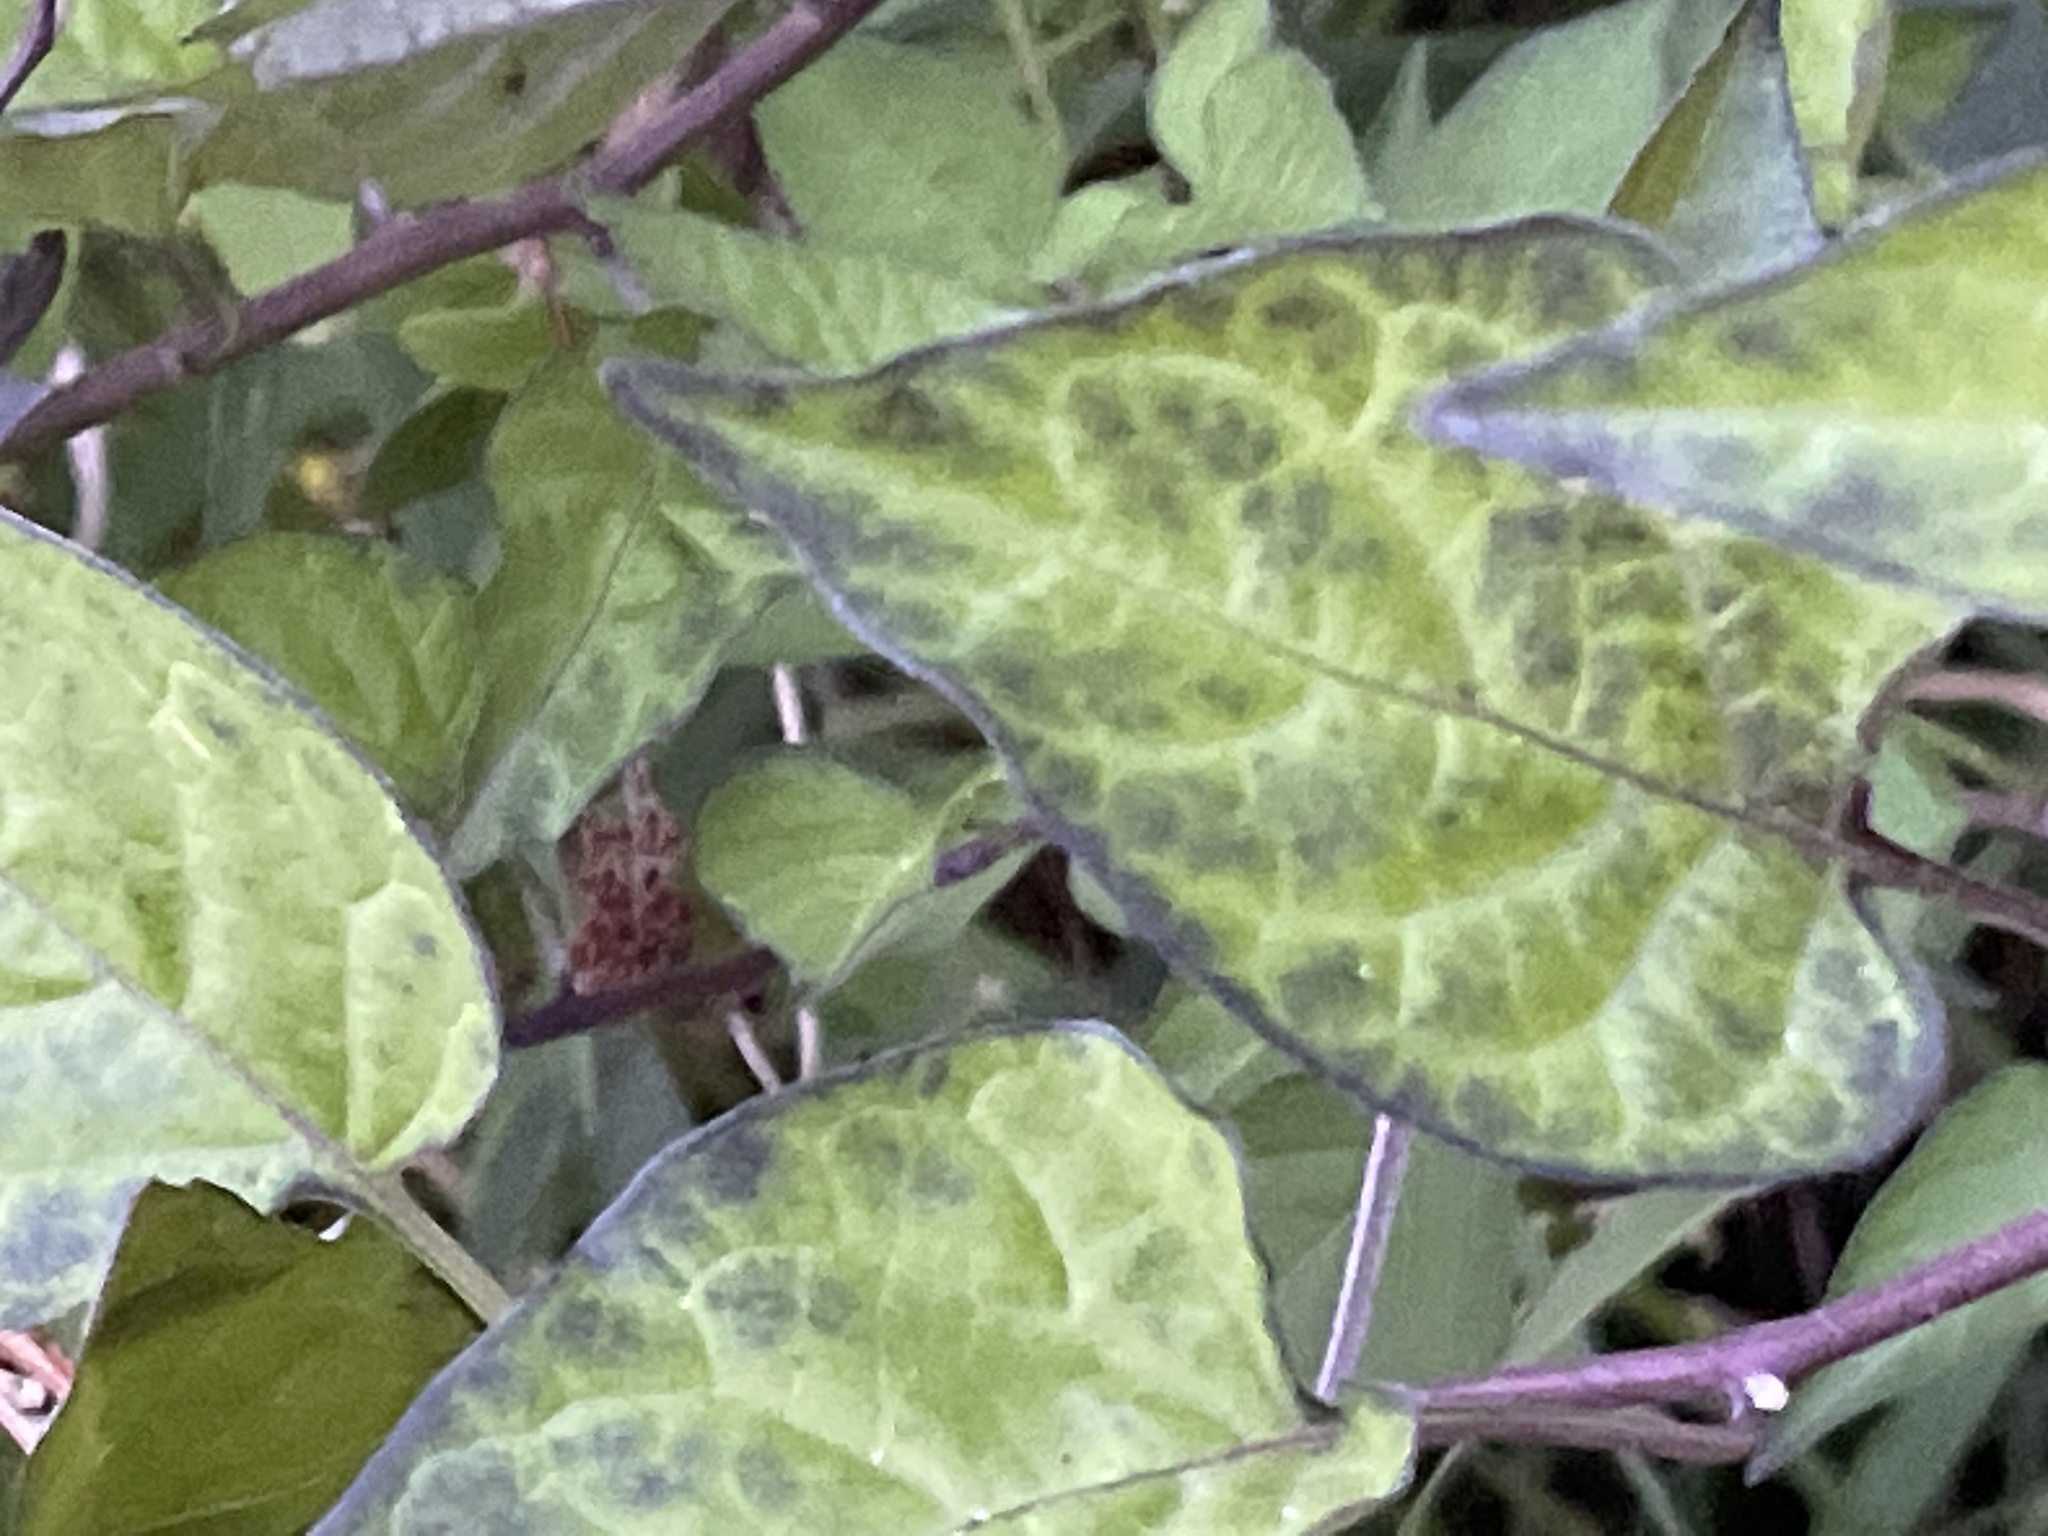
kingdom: Plantae
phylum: Tracheophyta
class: Magnoliopsida
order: Solanales
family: Solanaceae
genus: Solanum
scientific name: Solanum dulcamara
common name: Climbing nightshade
